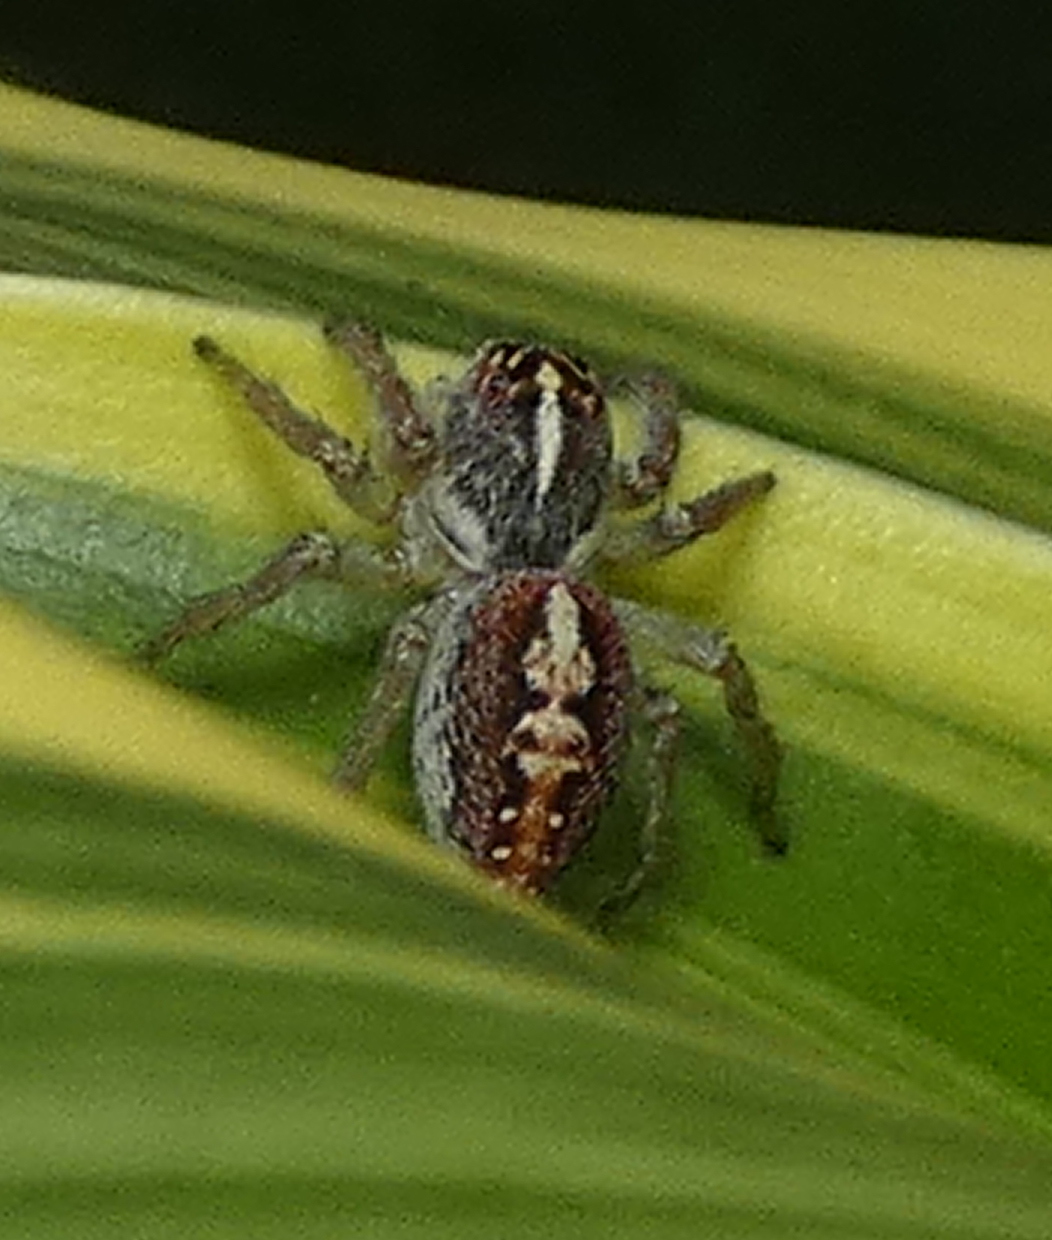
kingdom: Animalia
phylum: Arthropoda
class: Arachnida
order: Araneae
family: Salticidae
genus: Frigga
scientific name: Frigga coronigera
